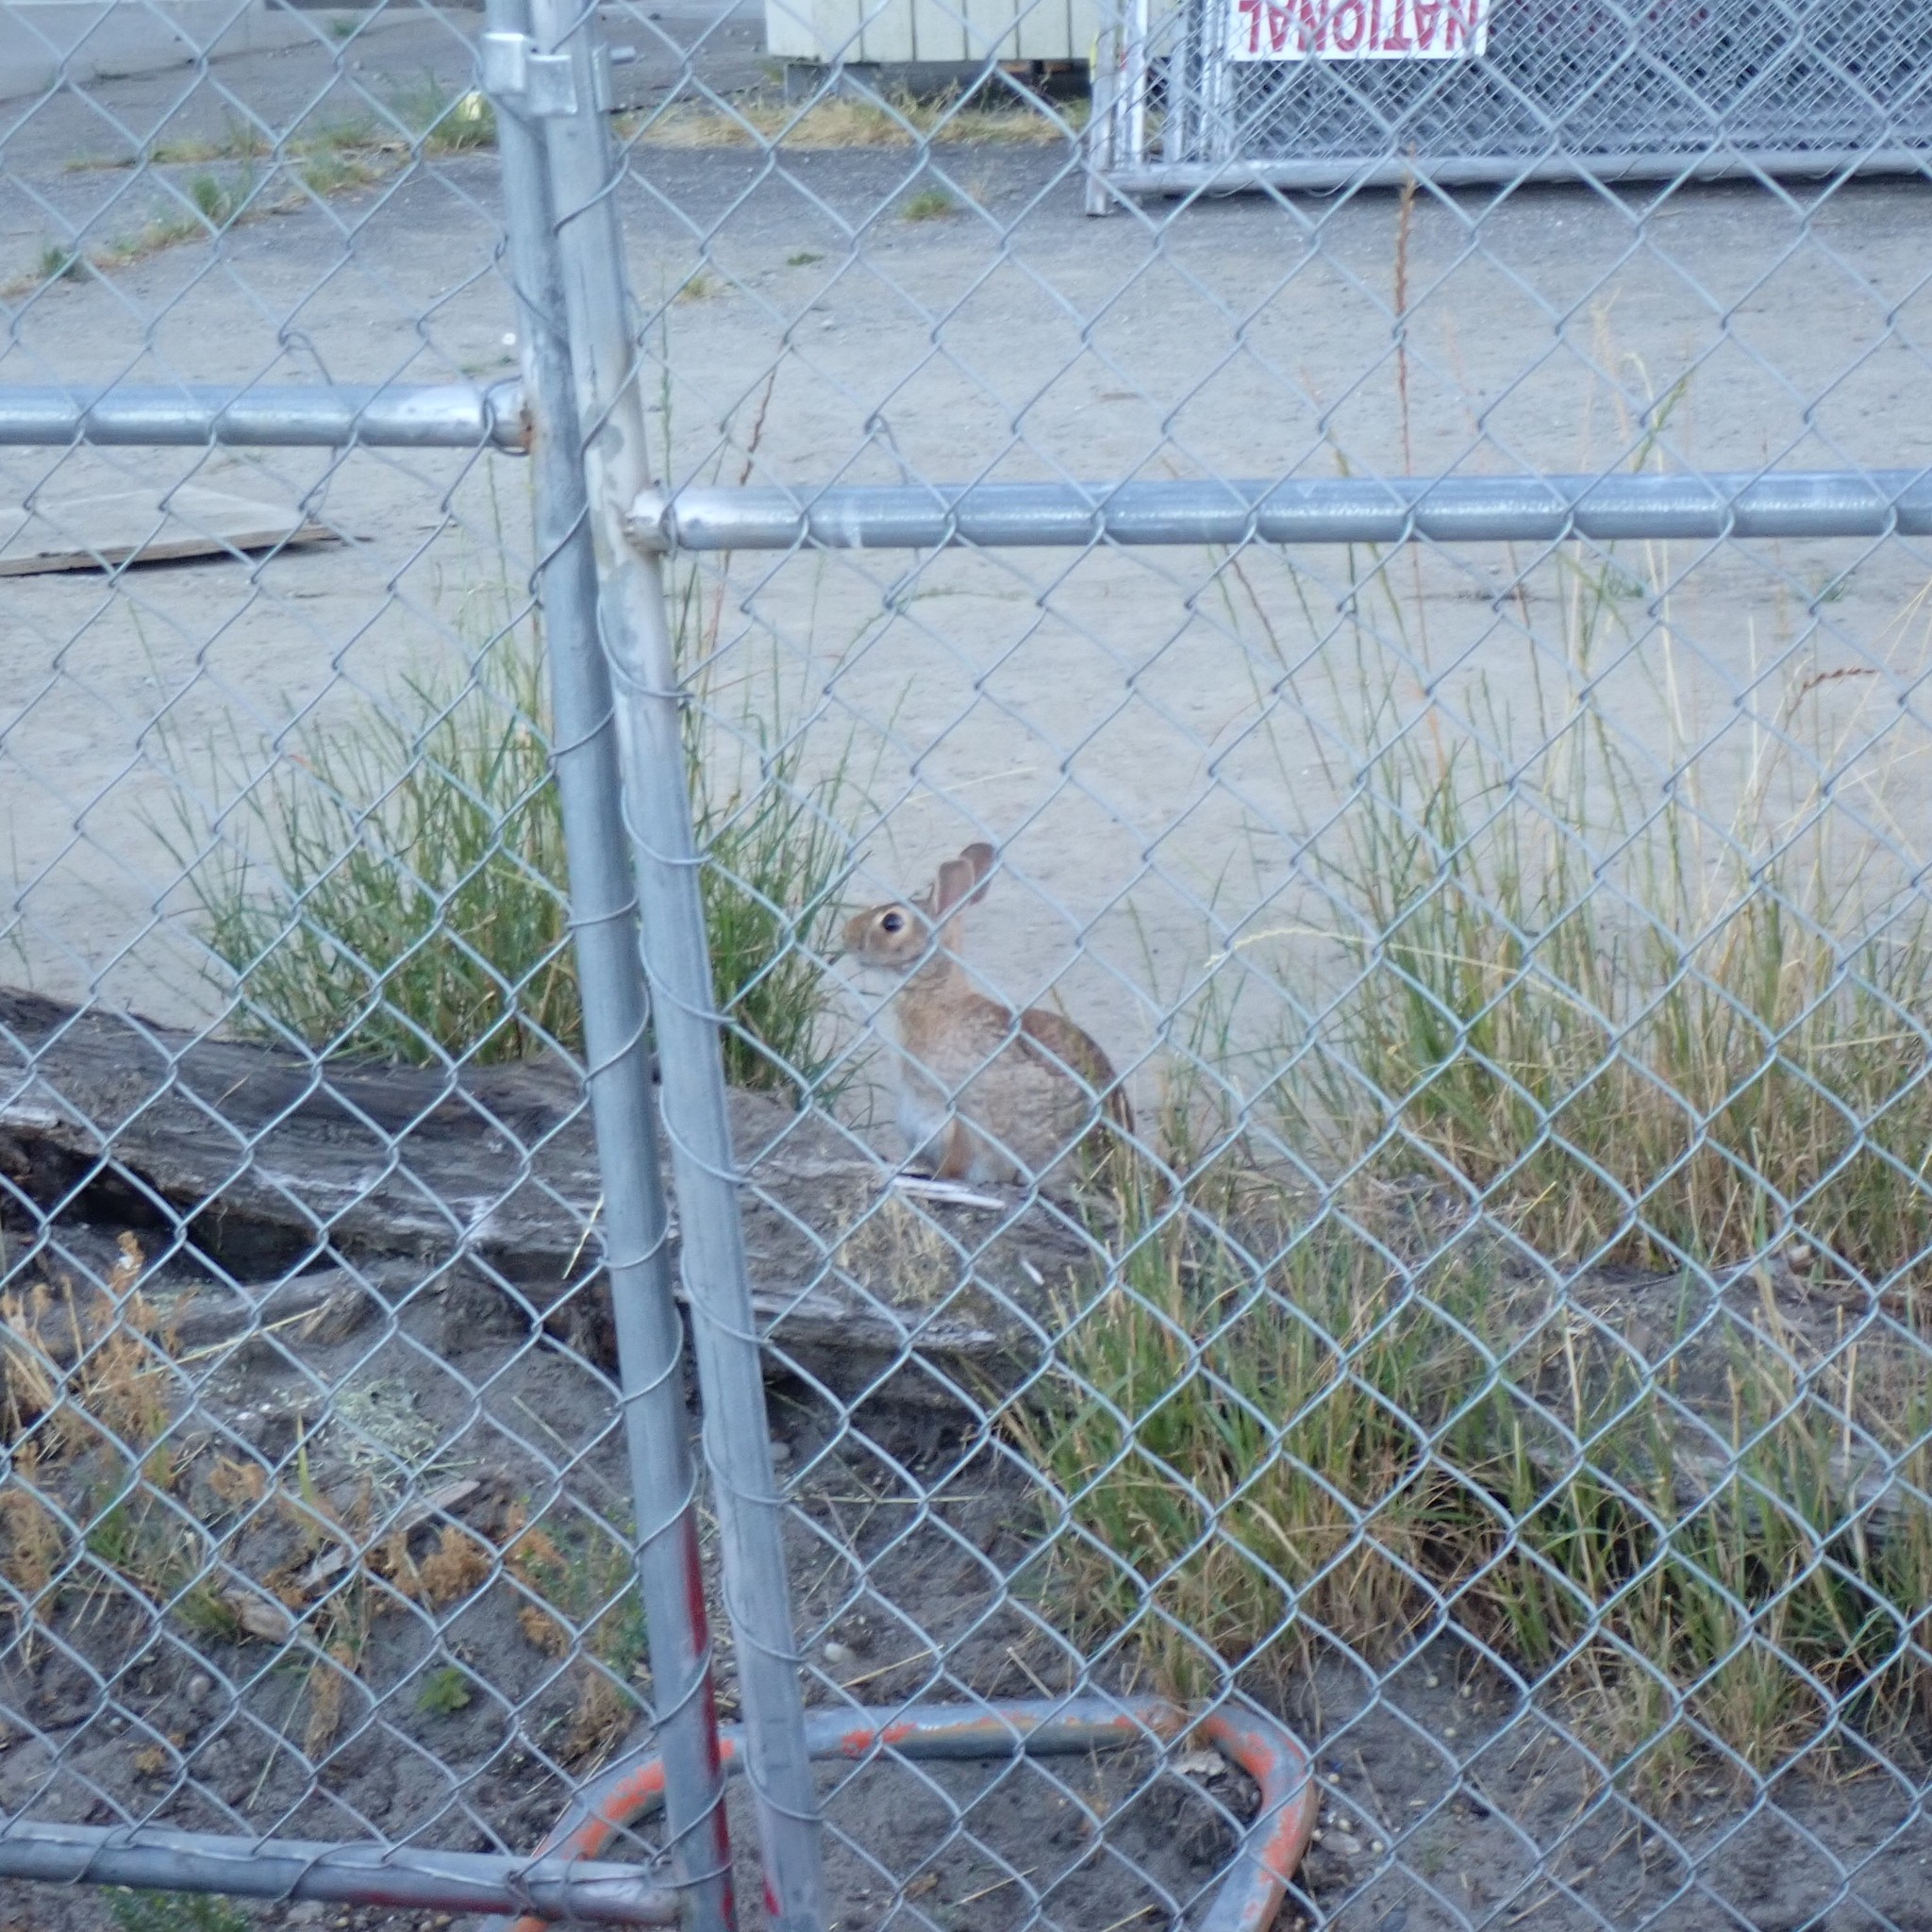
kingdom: Animalia
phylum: Chordata
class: Mammalia
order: Lagomorpha
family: Leporidae
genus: Sylvilagus
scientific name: Sylvilagus floridanus
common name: Eastern cottontail
